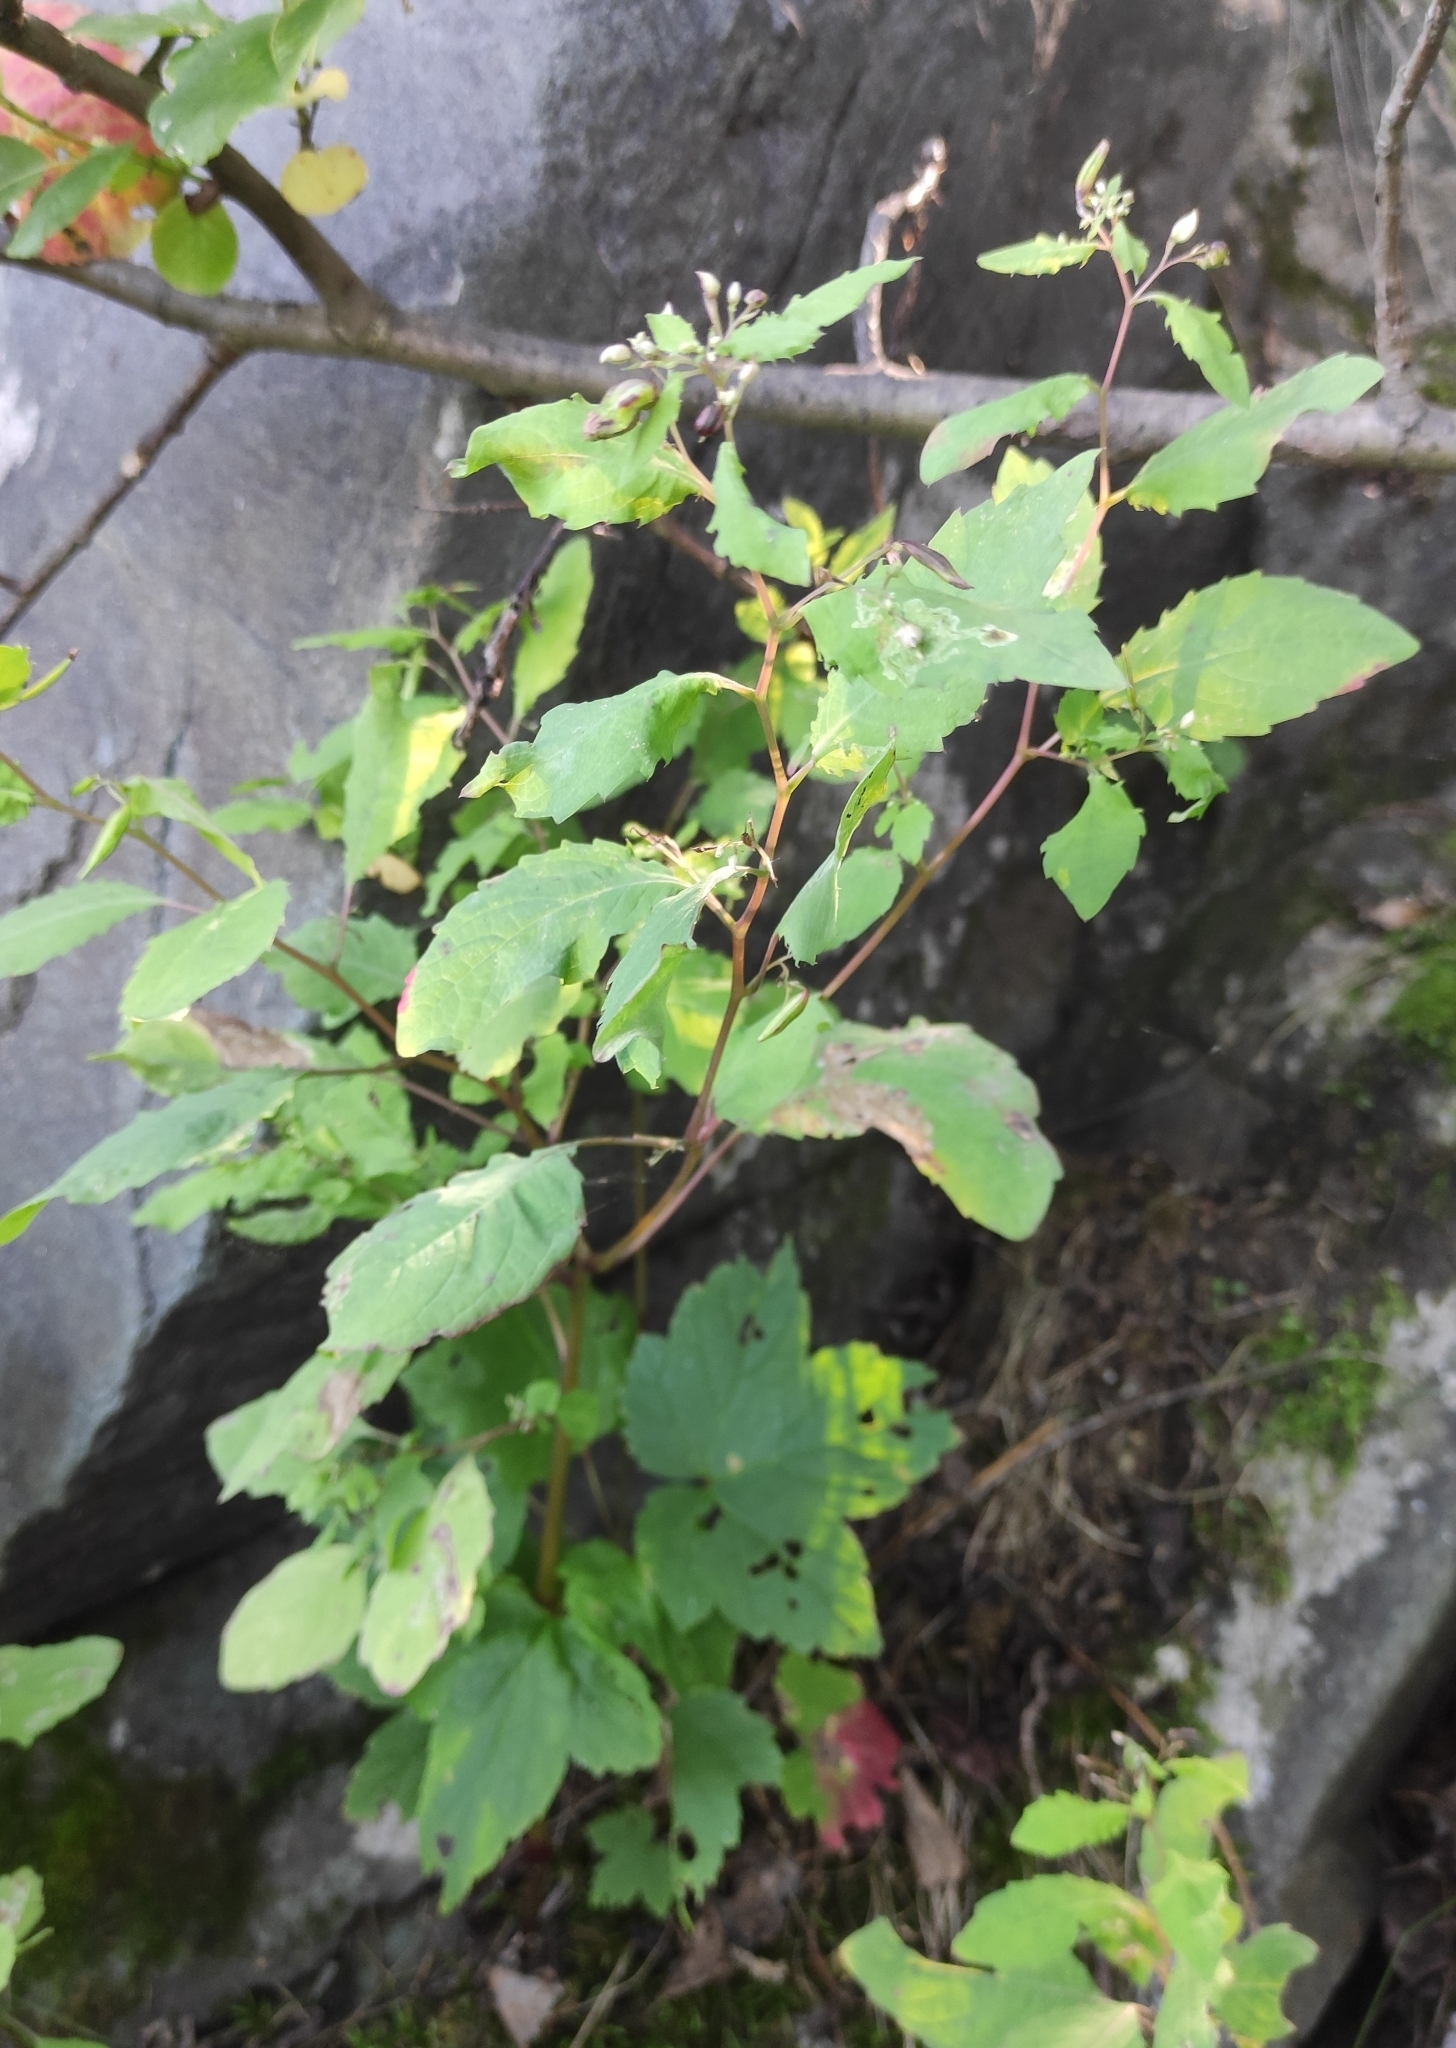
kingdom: Plantae
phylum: Tracheophyta
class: Magnoliopsida
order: Ericales
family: Balsaminaceae
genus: Impatiens
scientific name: Impatiens noli-tangere
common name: Touch-me-not balsam
